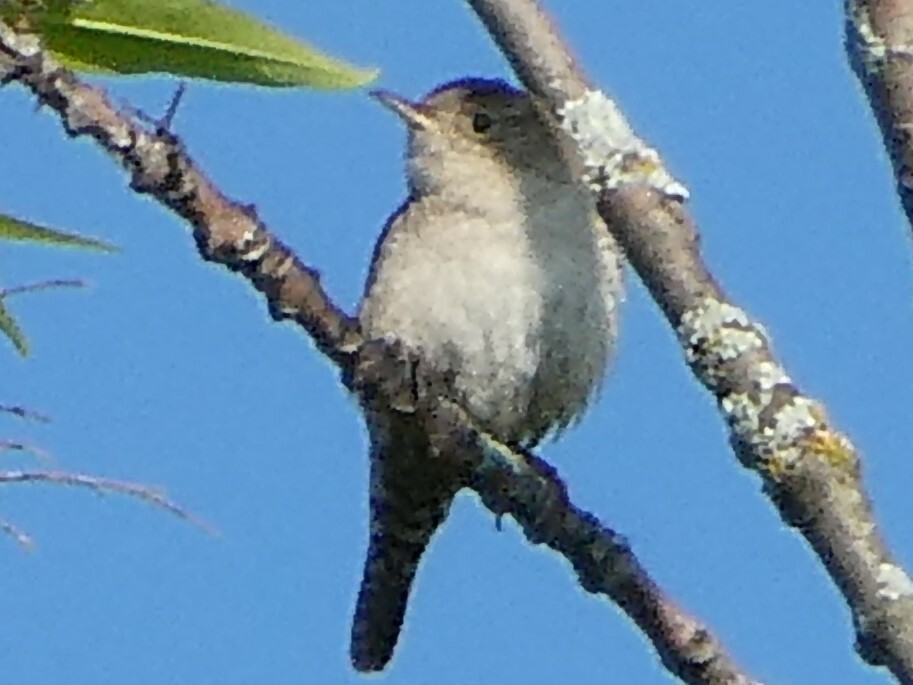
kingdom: Animalia
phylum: Chordata
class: Aves
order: Passeriformes
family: Troglodytidae
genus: Troglodytes
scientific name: Troglodytes aedon
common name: House wren
